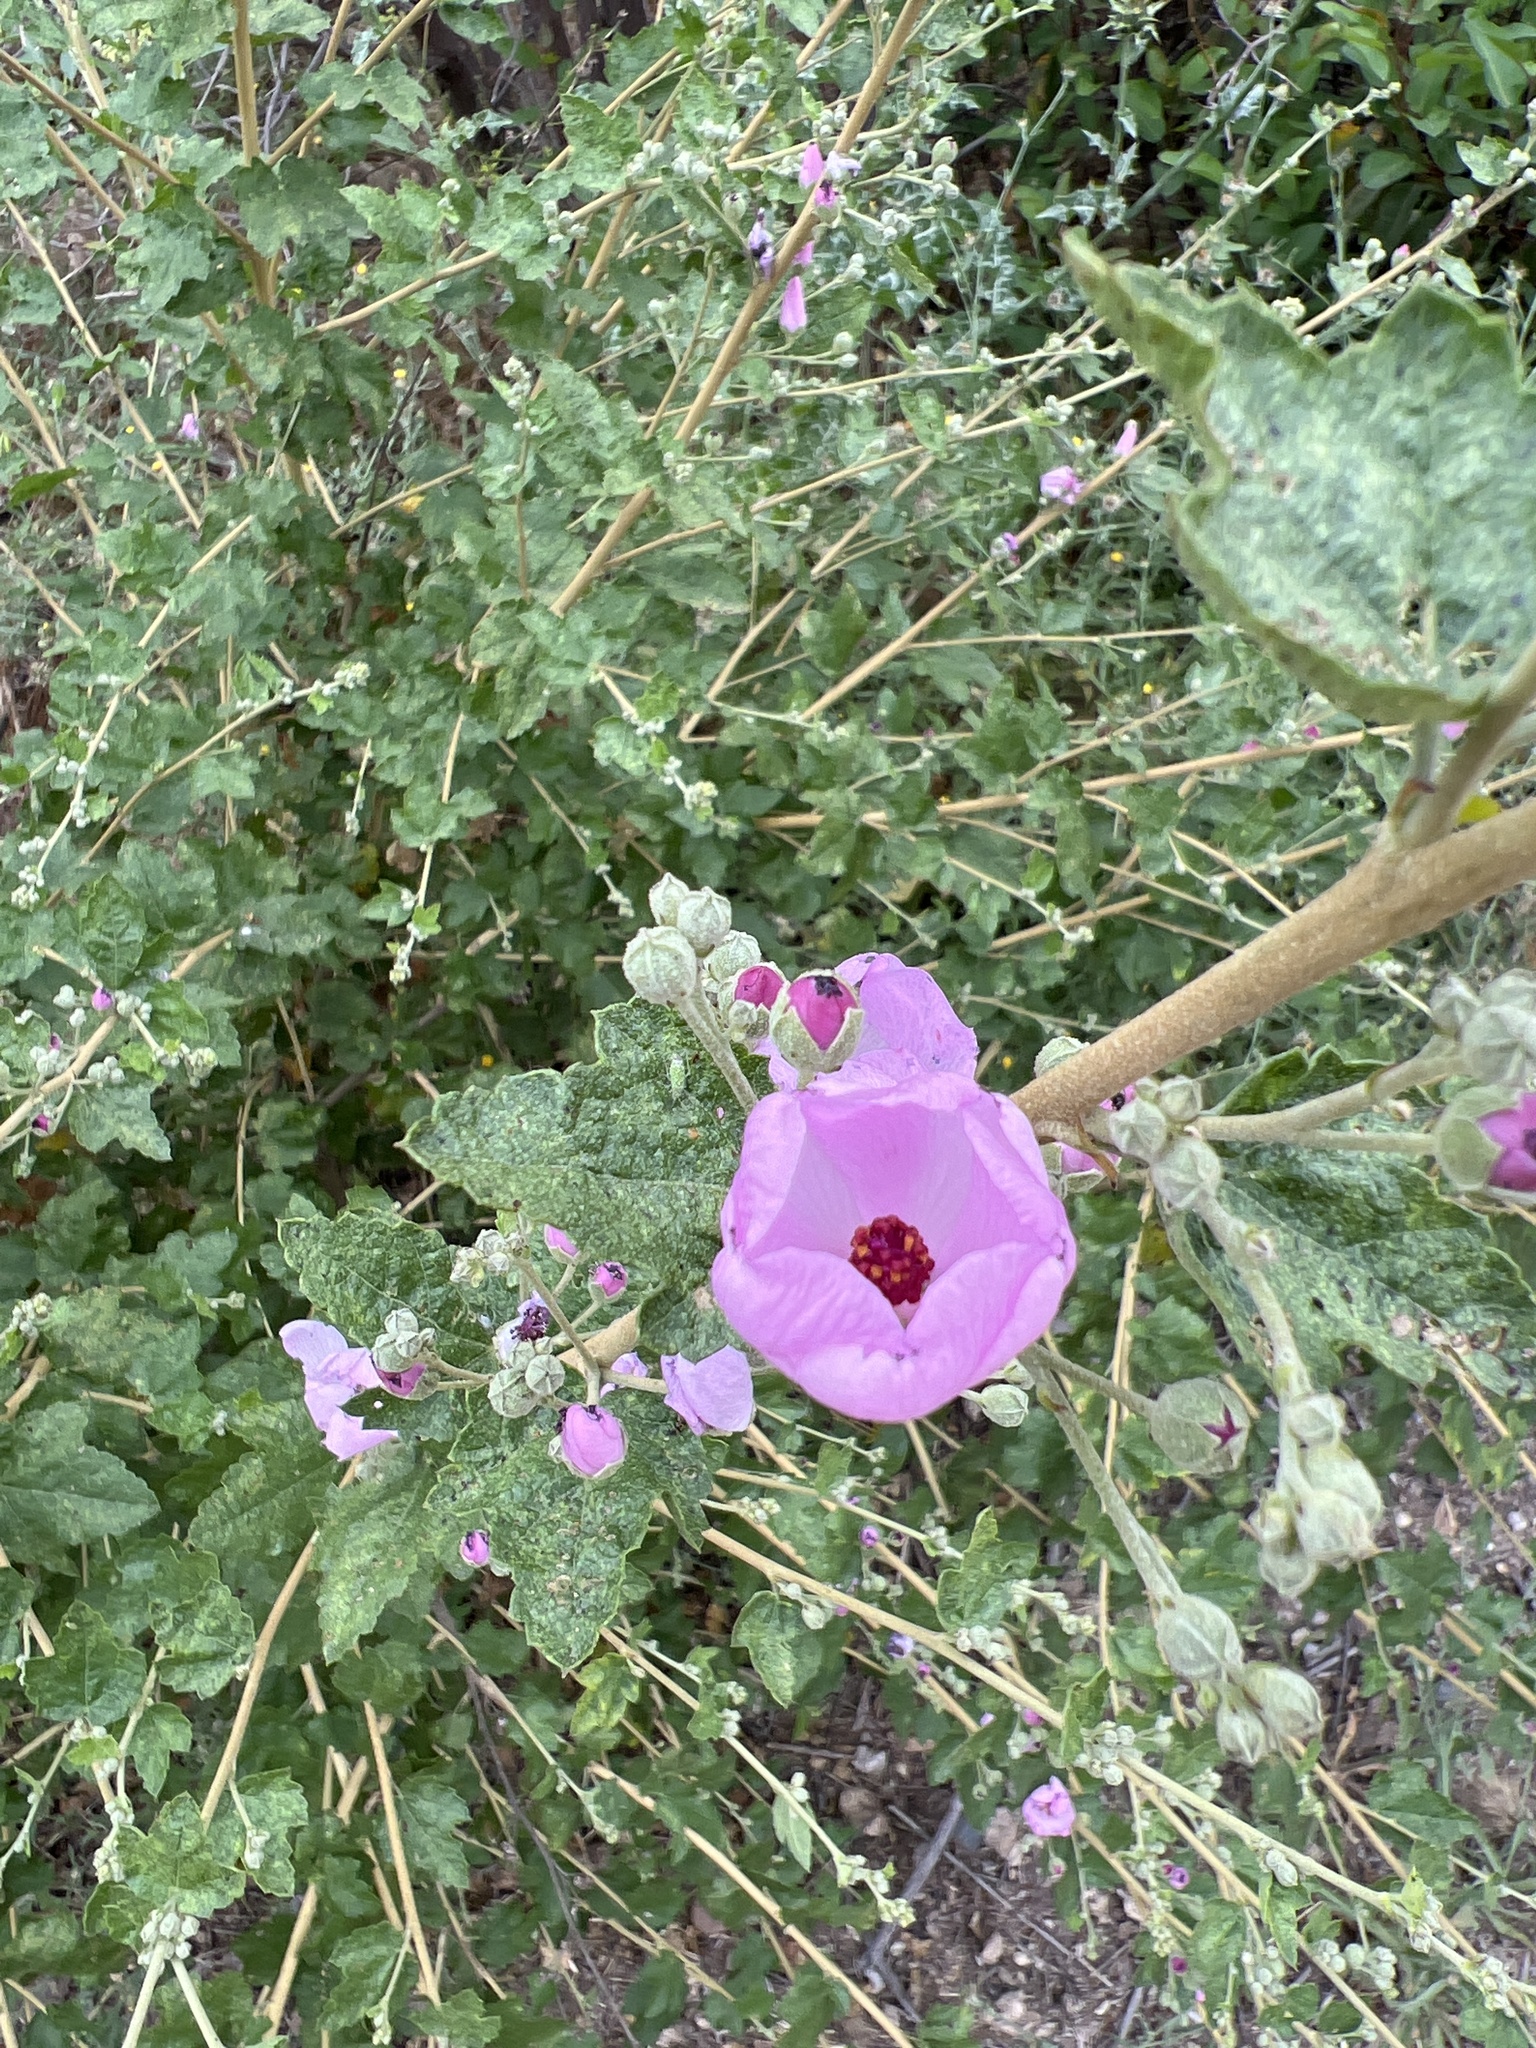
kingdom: Plantae
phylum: Tracheophyta
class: Magnoliopsida
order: Malvales
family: Malvaceae
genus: Malacothamnus
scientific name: Malacothamnus fasciculatus
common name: Sant cruz island bush-mallow
